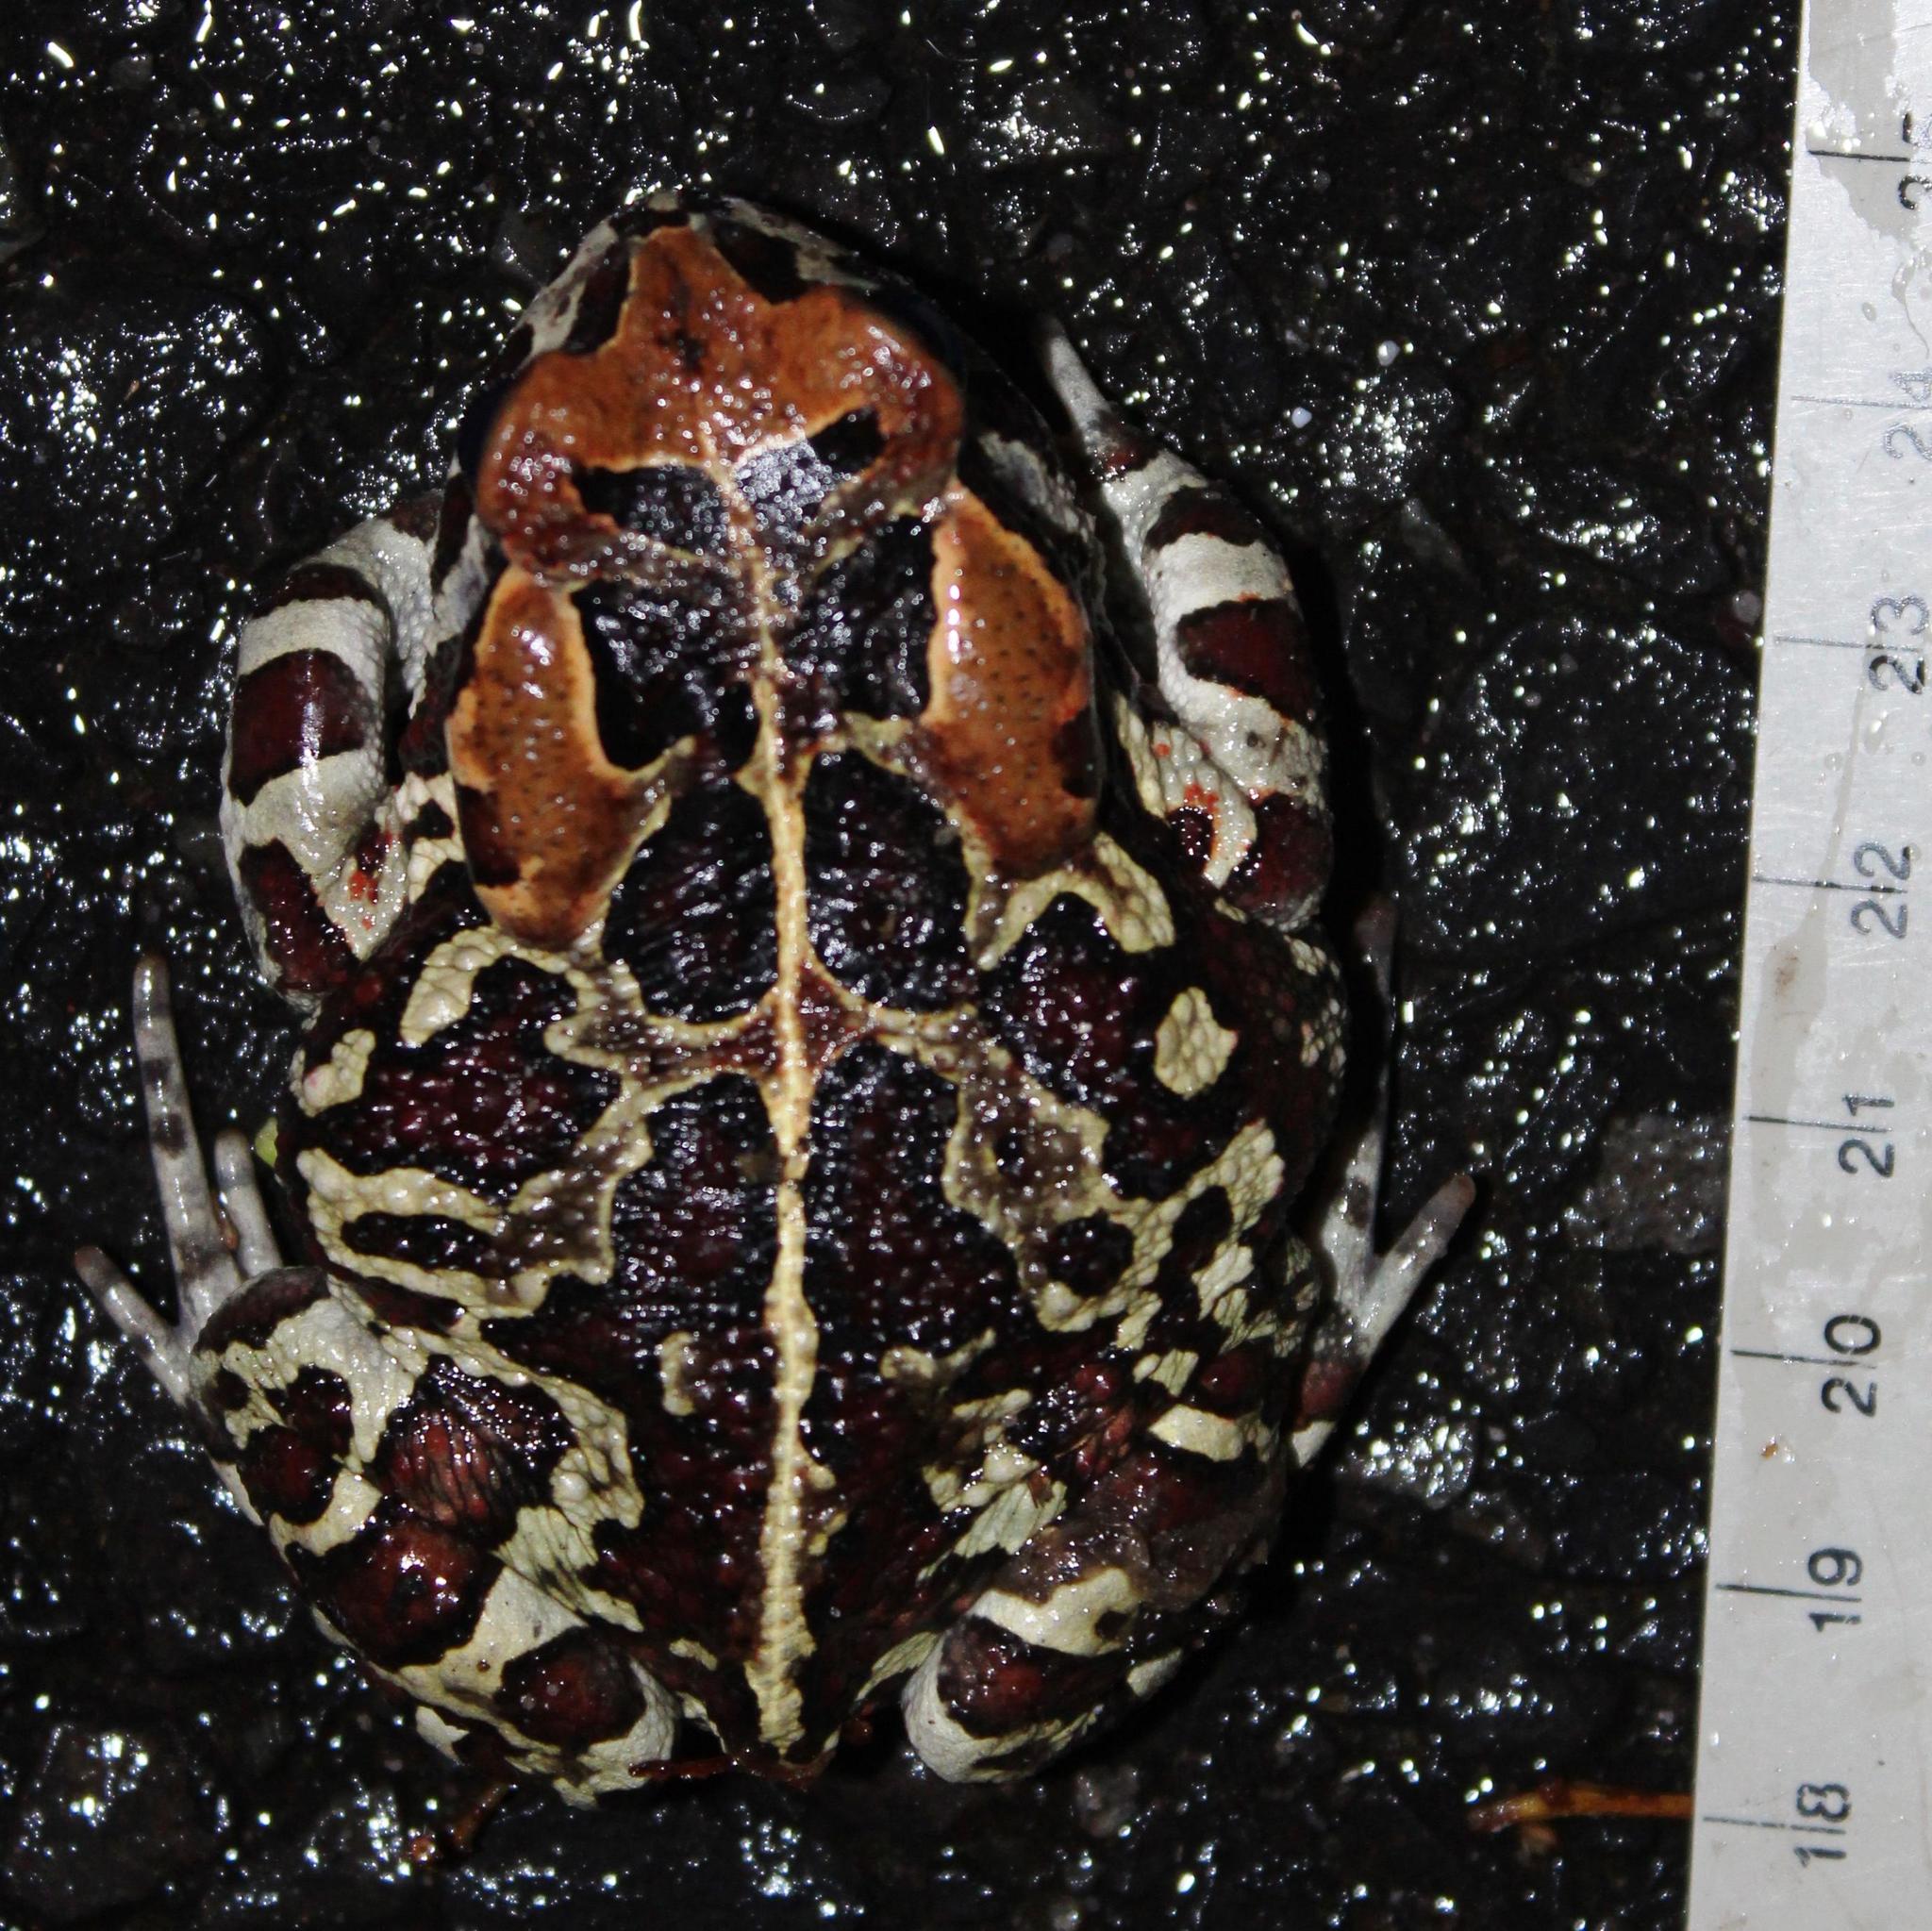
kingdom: Animalia
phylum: Chordata
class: Amphibia
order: Anura
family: Bufonidae
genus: Sclerophrys
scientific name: Sclerophrys pantherina
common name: Panther toad
